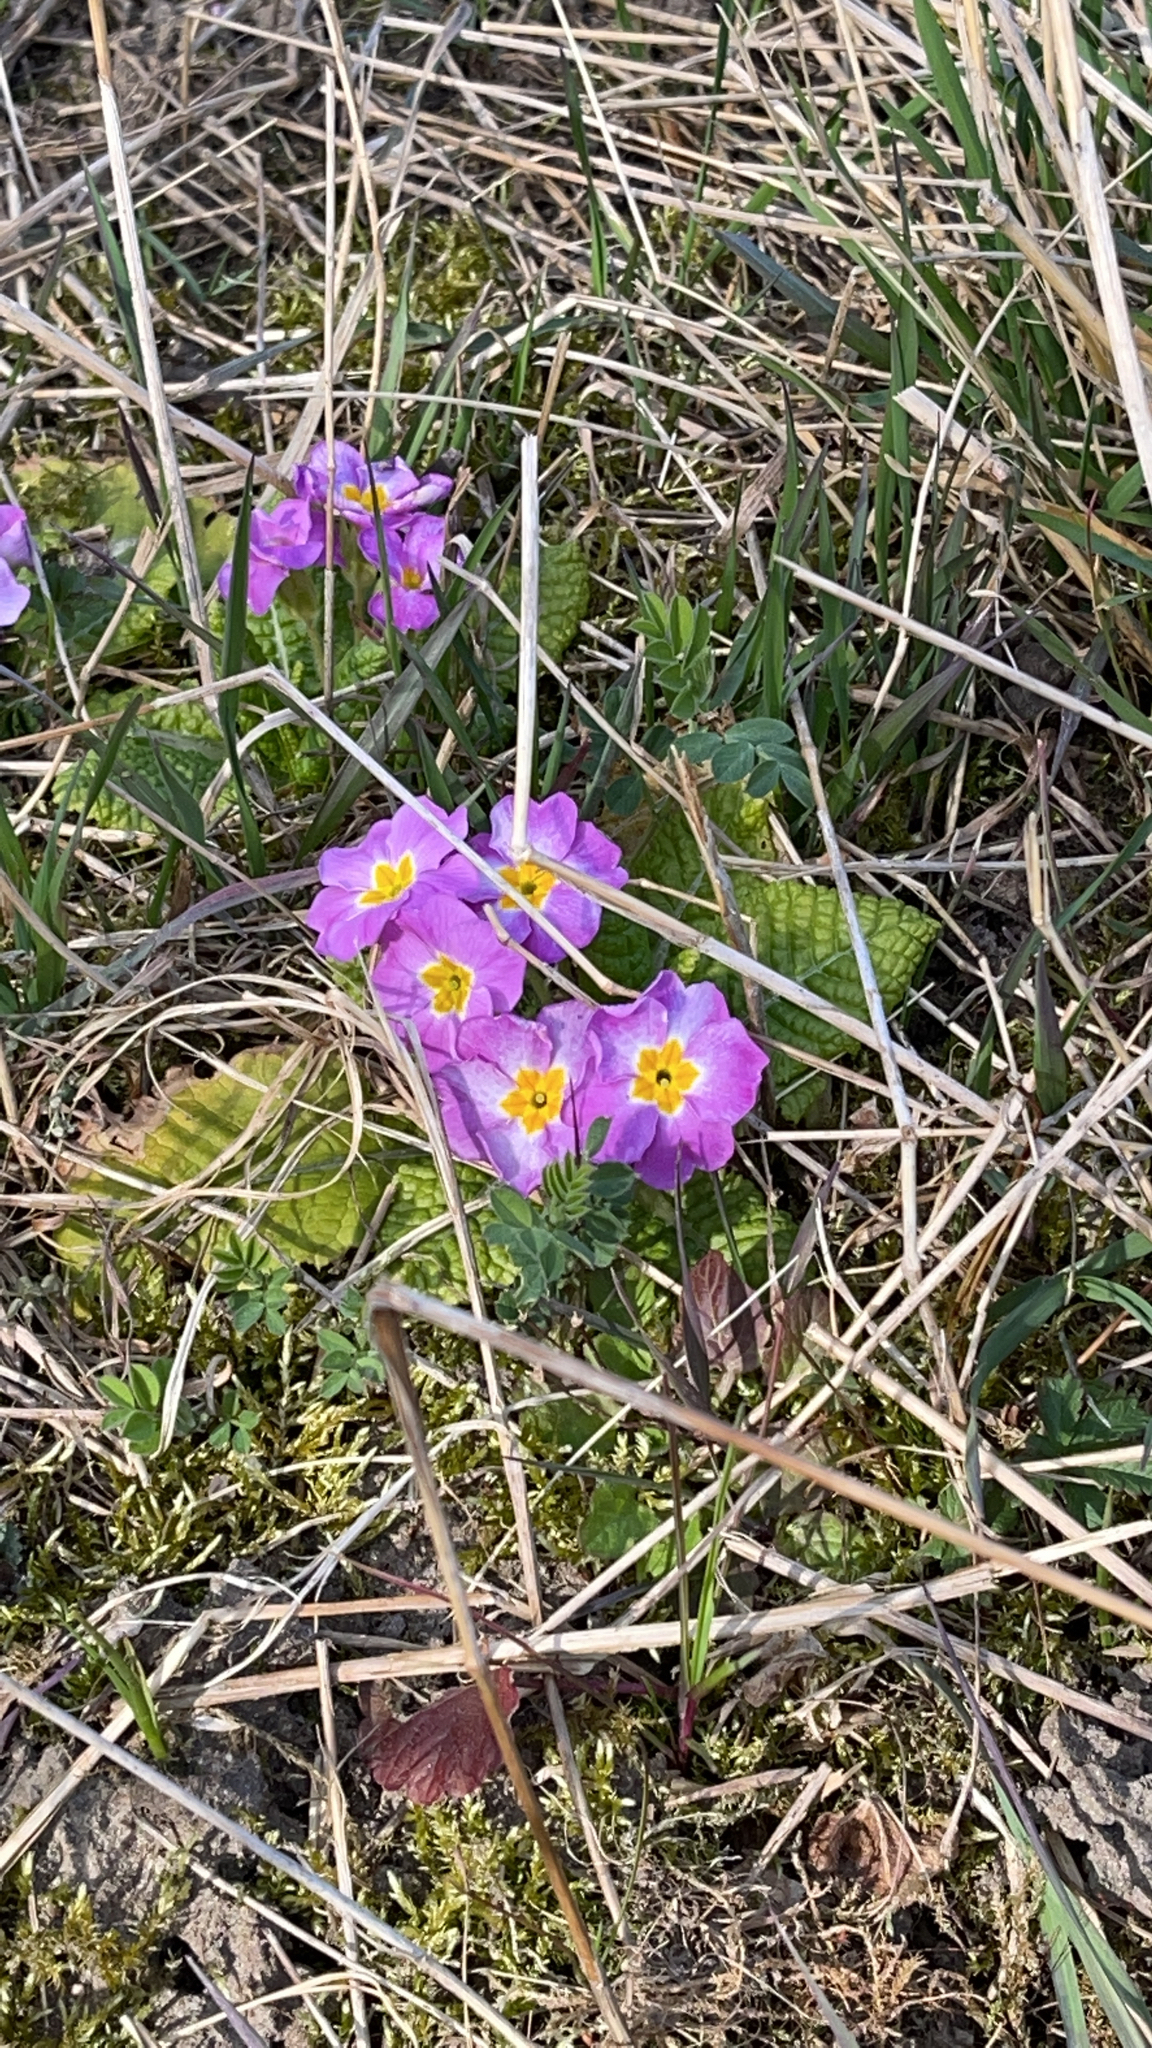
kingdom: Plantae
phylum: Tracheophyta
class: Magnoliopsida
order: Ericales
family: Primulaceae
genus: Primula
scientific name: Primula polyantha
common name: False oxlip
